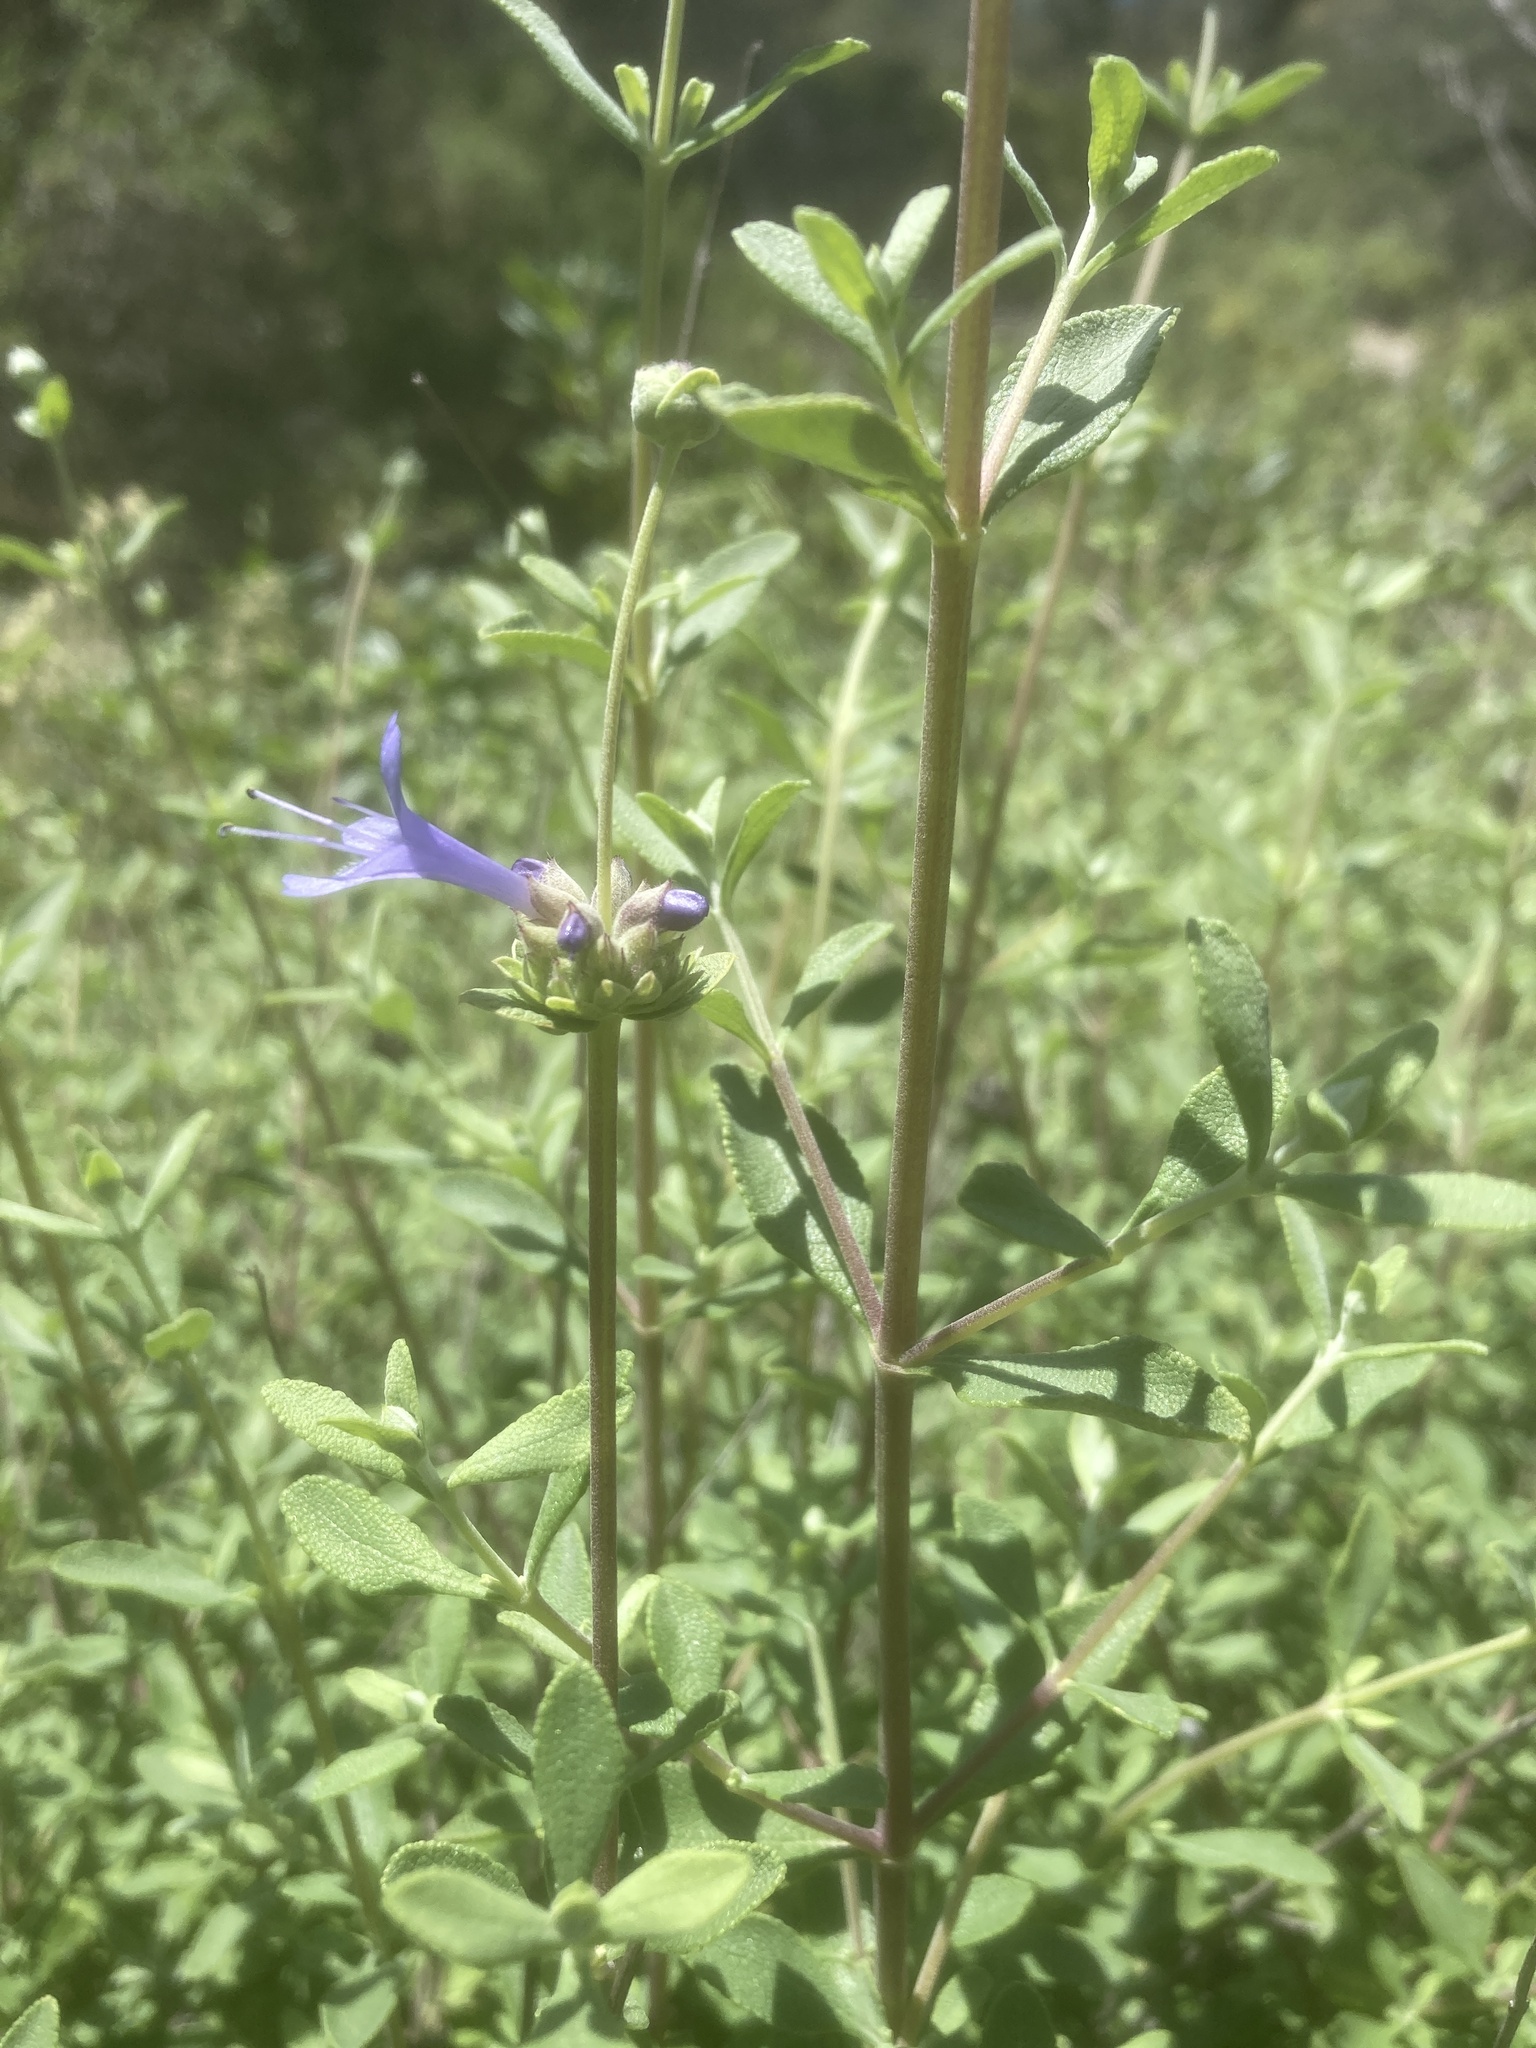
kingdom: Plantae
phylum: Tracheophyta
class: Magnoliopsida
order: Lamiales
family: Lamiaceae
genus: Salvia
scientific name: Salvia clevelandii
